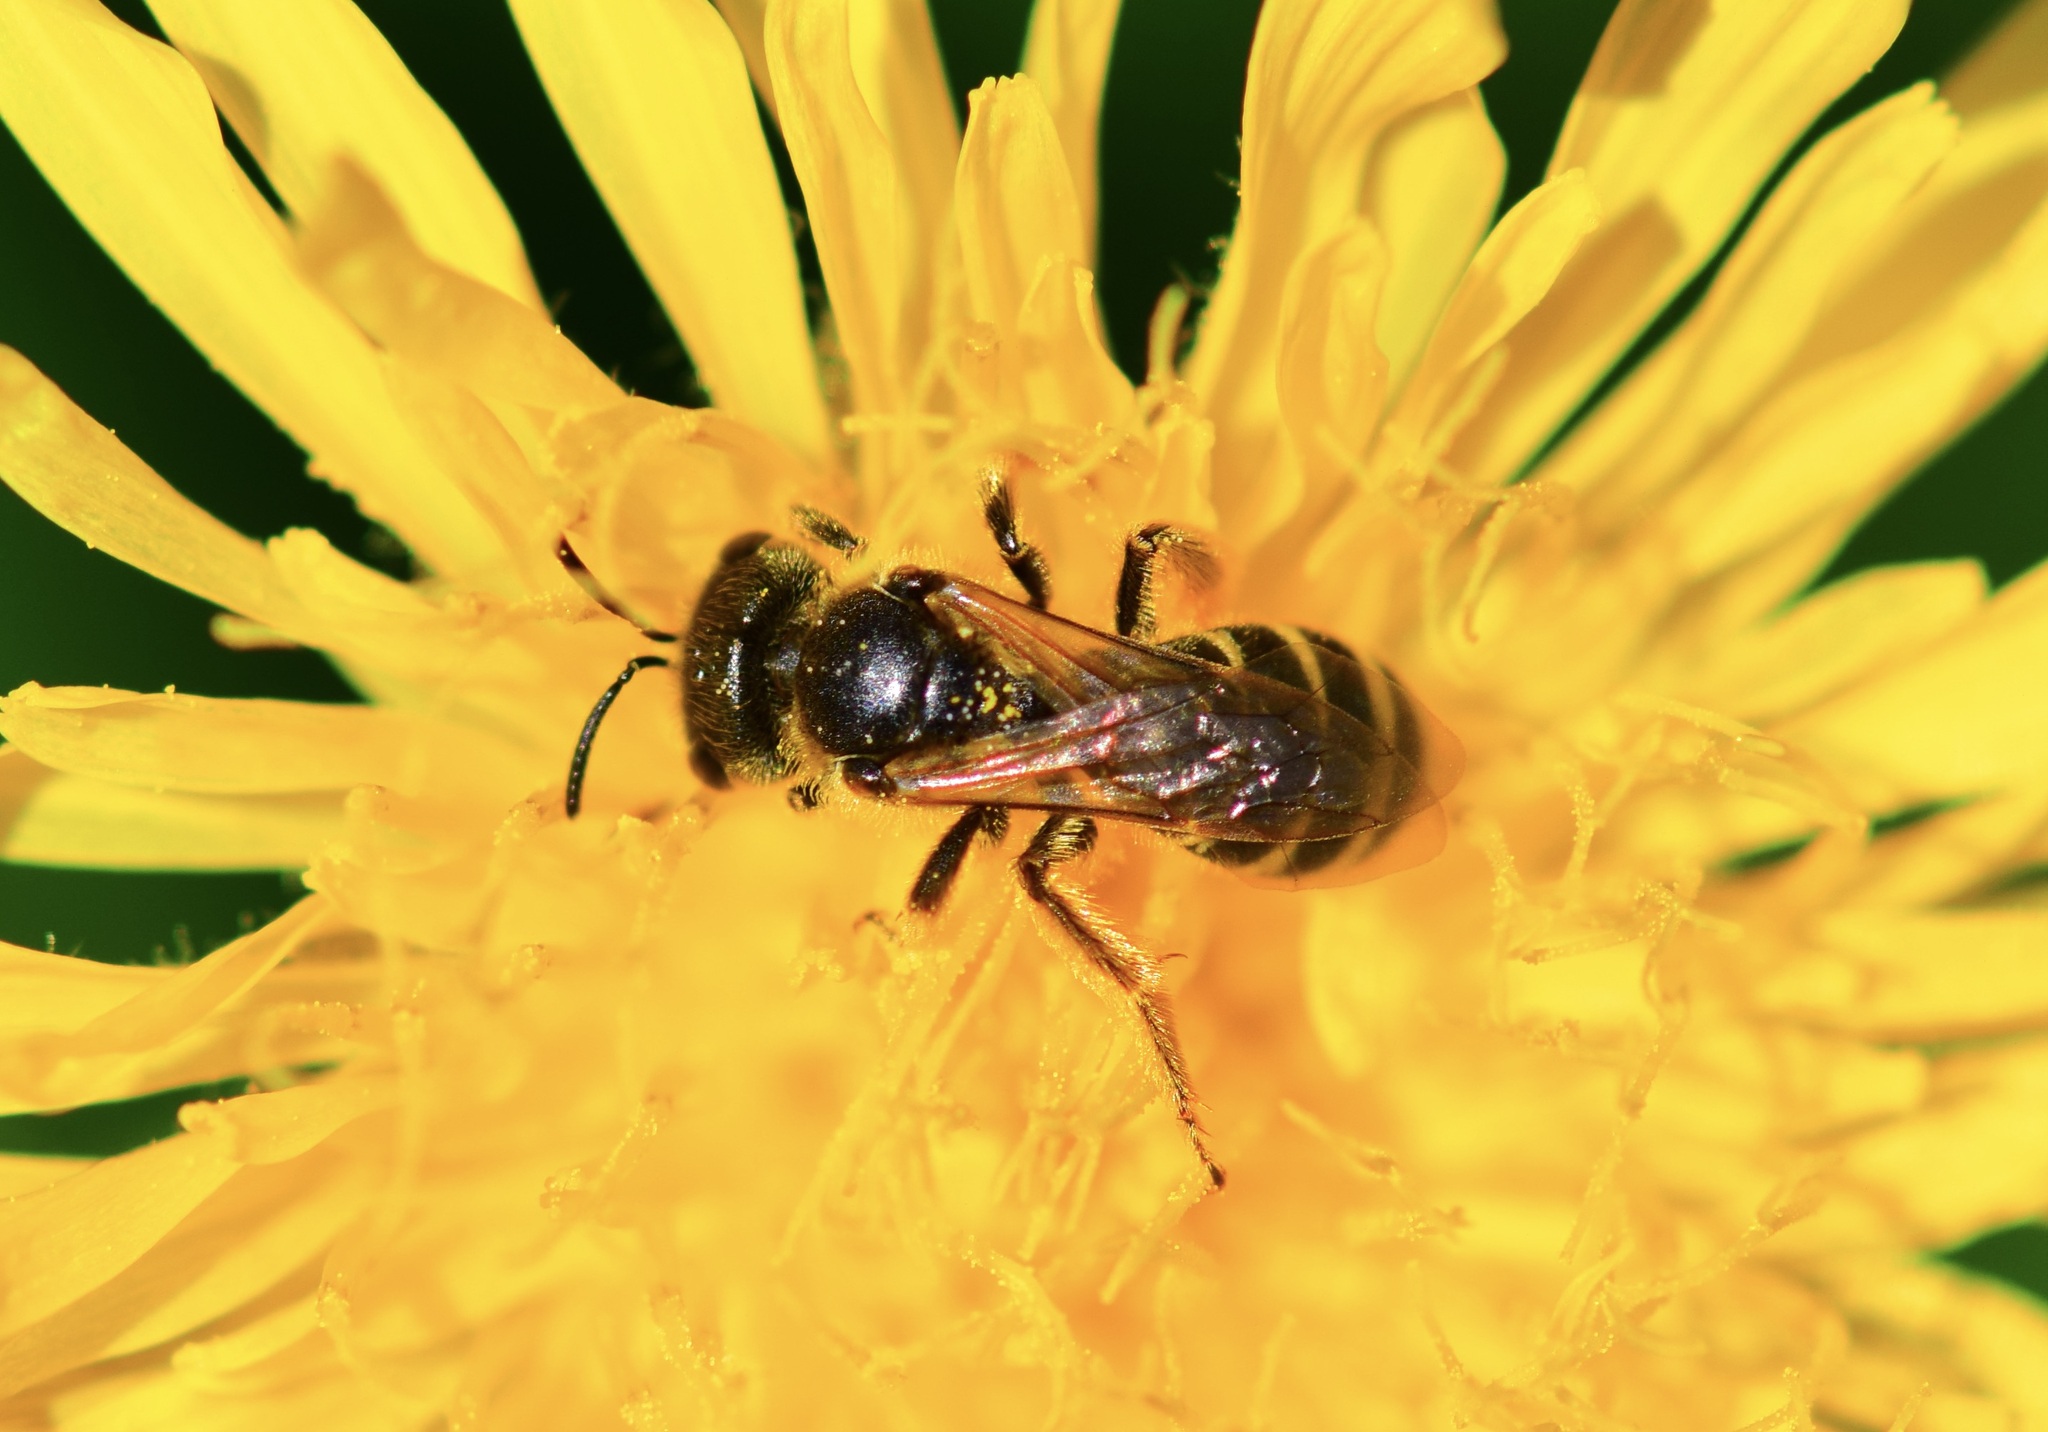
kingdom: Animalia
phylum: Arthropoda
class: Insecta
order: Hymenoptera
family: Halictidae
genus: Halictus
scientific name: Halictus ligatus
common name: Ligated furrow bee
